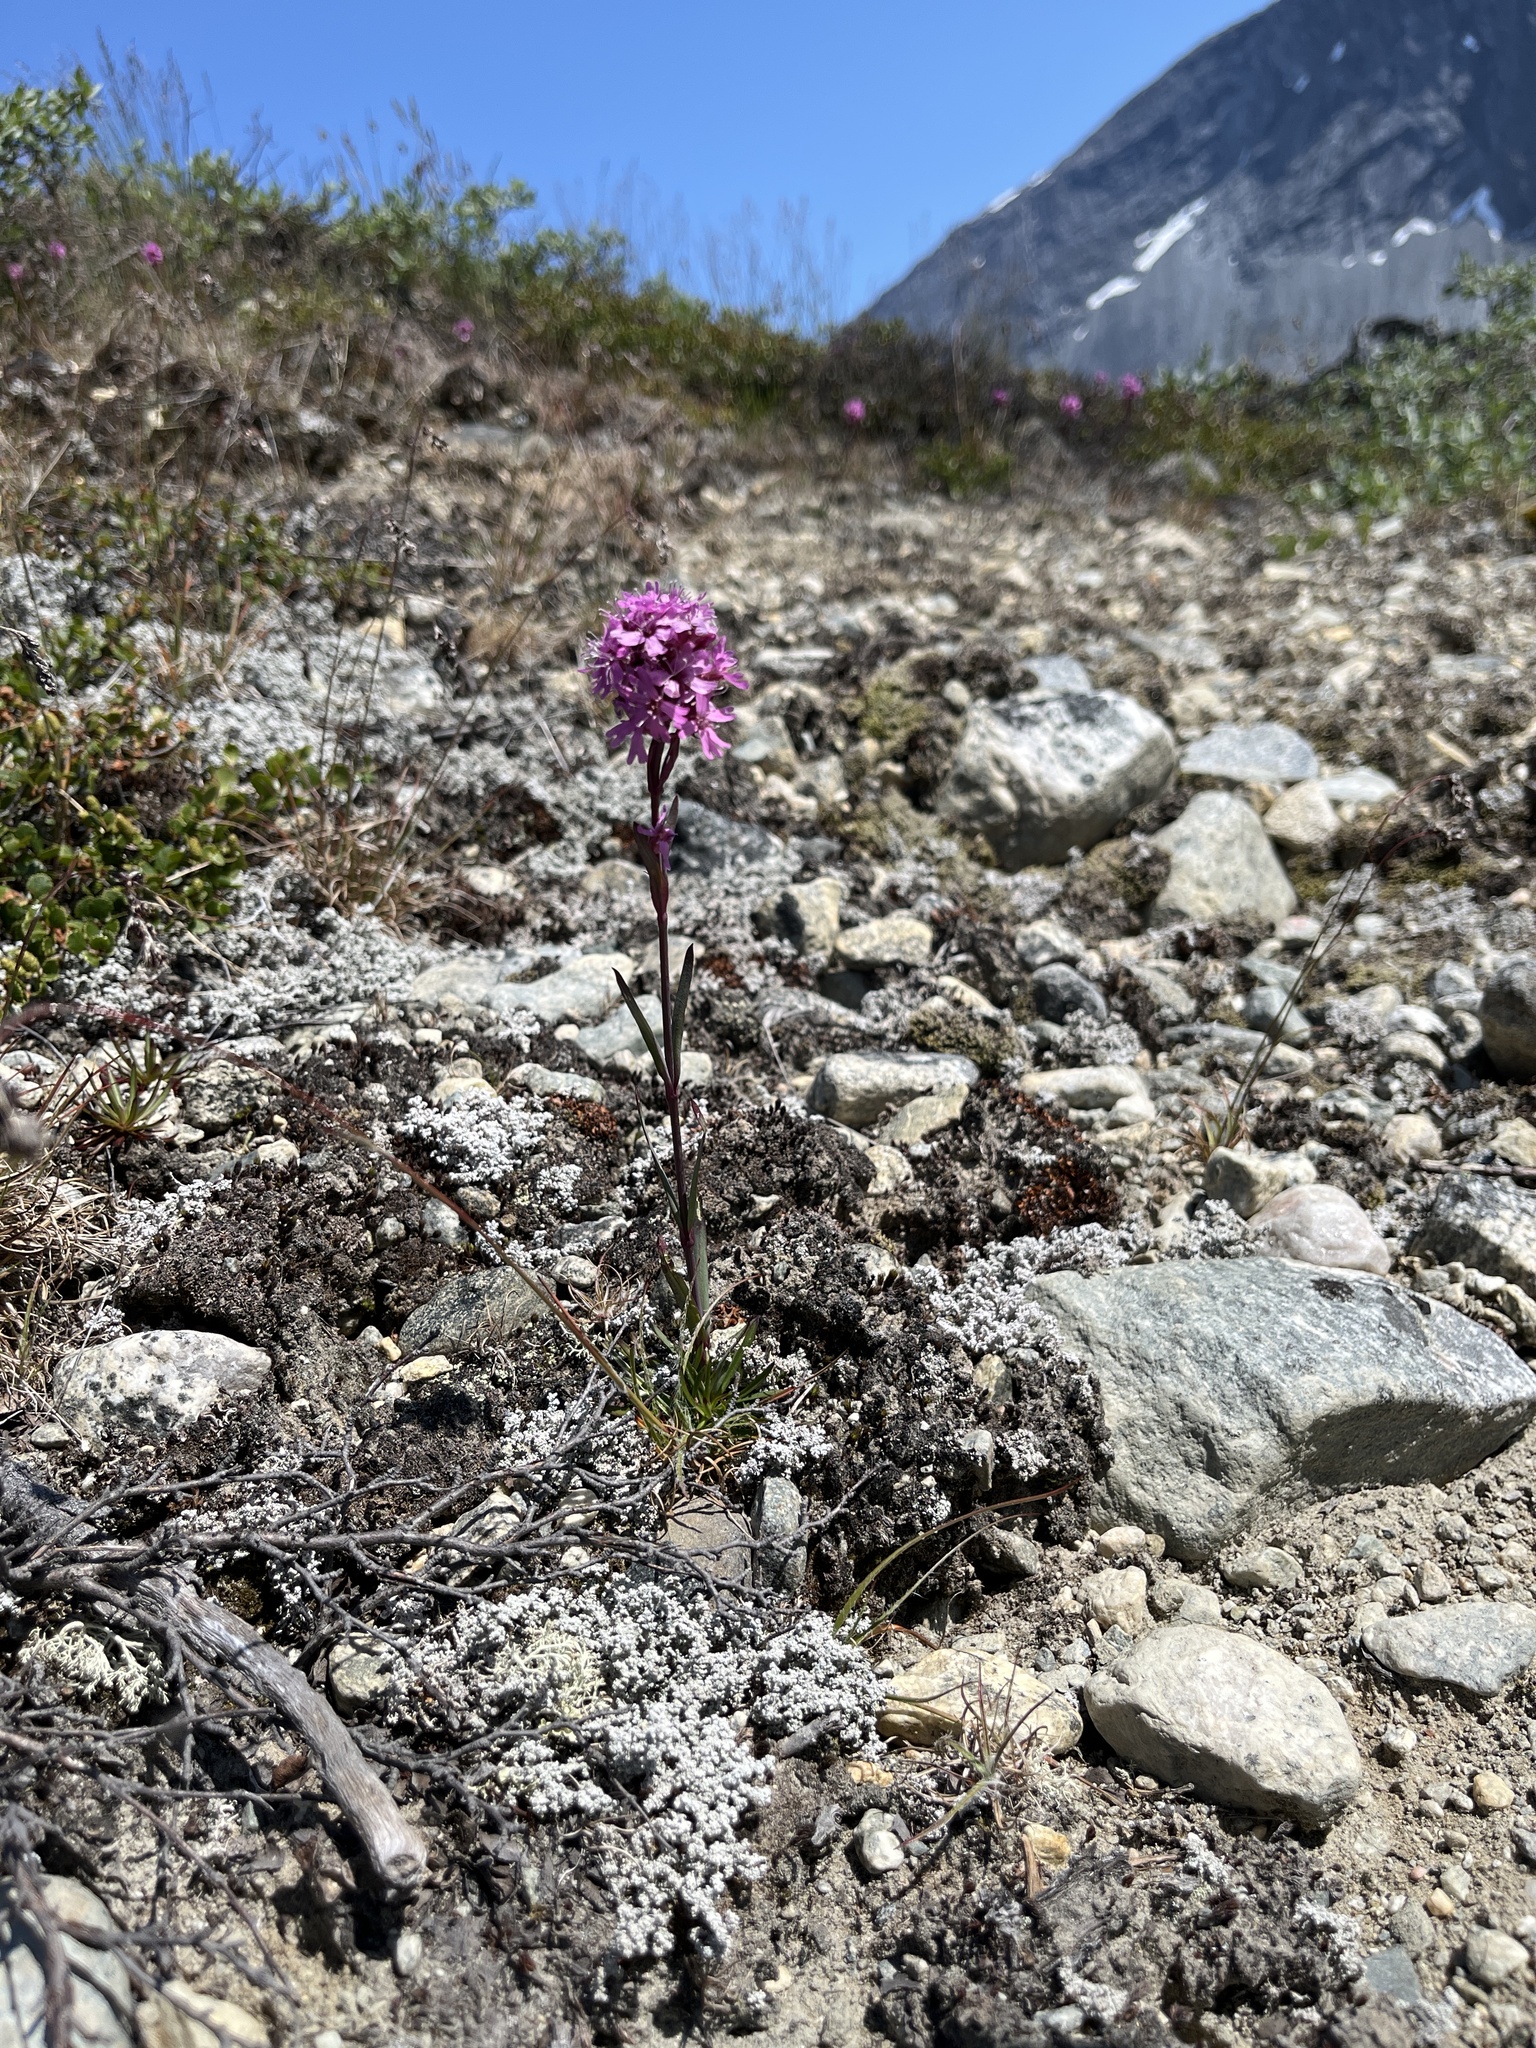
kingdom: Plantae
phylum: Tracheophyta
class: Magnoliopsida
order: Caryophyllales
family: Caryophyllaceae
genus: Viscaria
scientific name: Viscaria alpina
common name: Alpine campion
